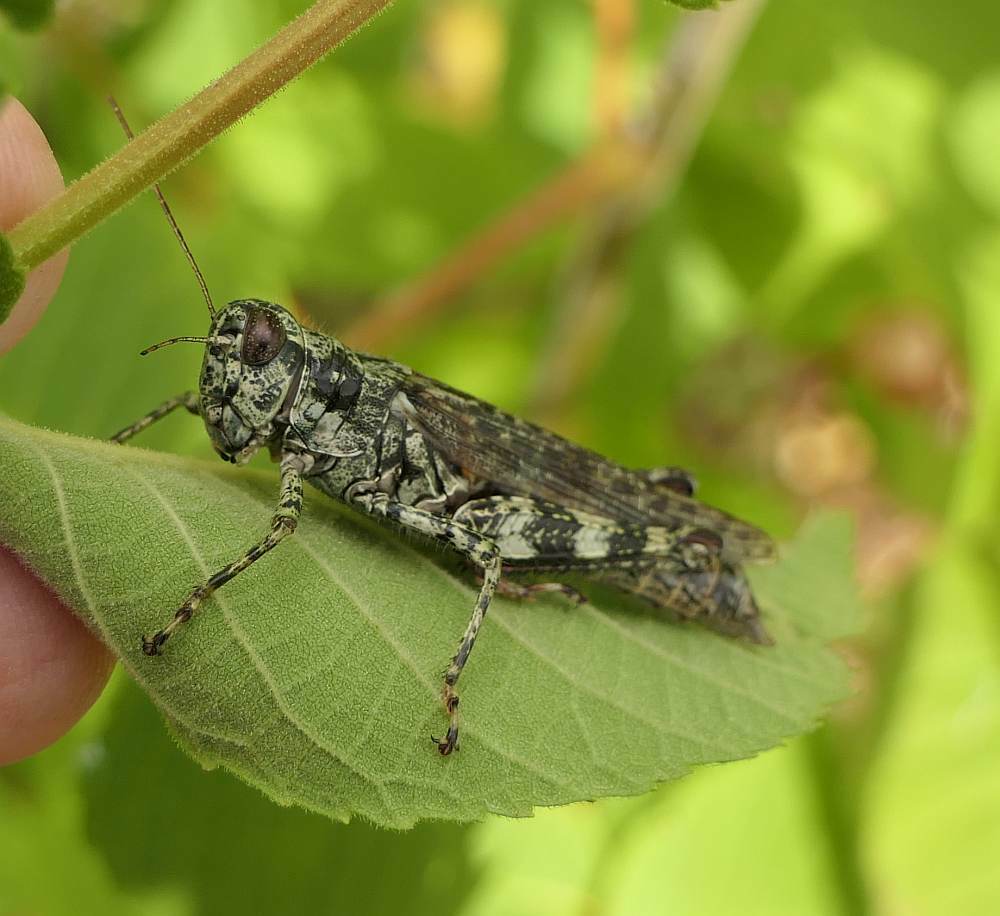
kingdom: Animalia
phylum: Arthropoda
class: Insecta
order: Orthoptera
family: Acrididae
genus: Melanoplus
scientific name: Melanoplus punctulatus
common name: Pine-tree spur-throat grasshopper
